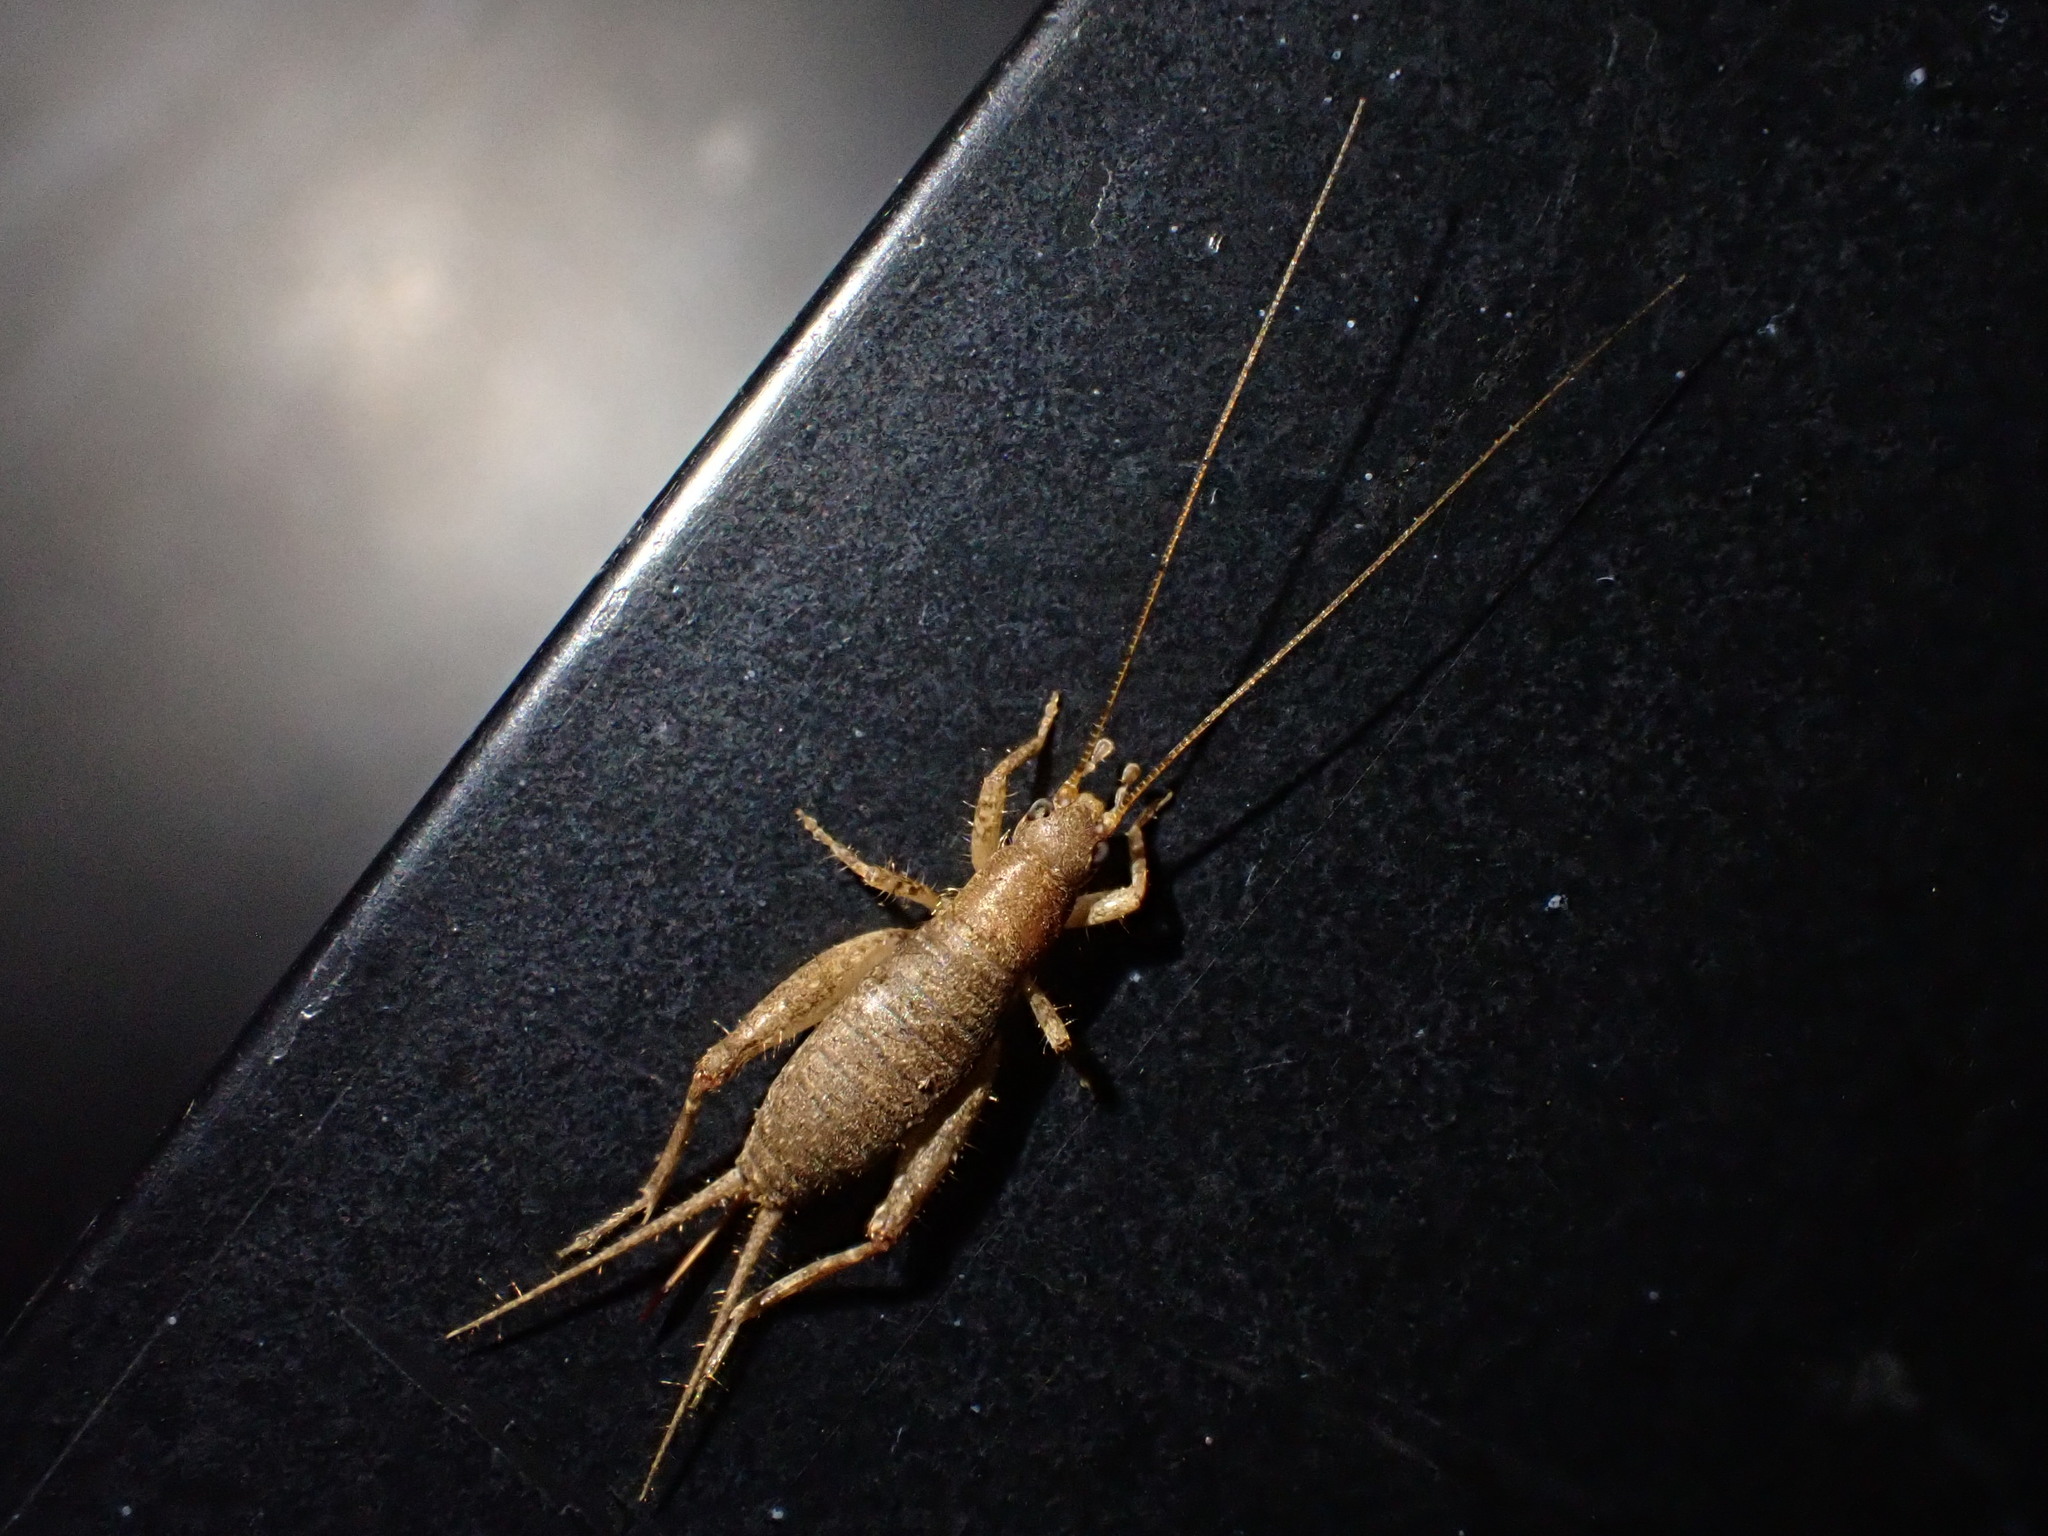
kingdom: Animalia
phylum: Arthropoda
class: Insecta
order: Orthoptera
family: Mogoplistidae
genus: Ornebius
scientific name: Ornebius aperta
